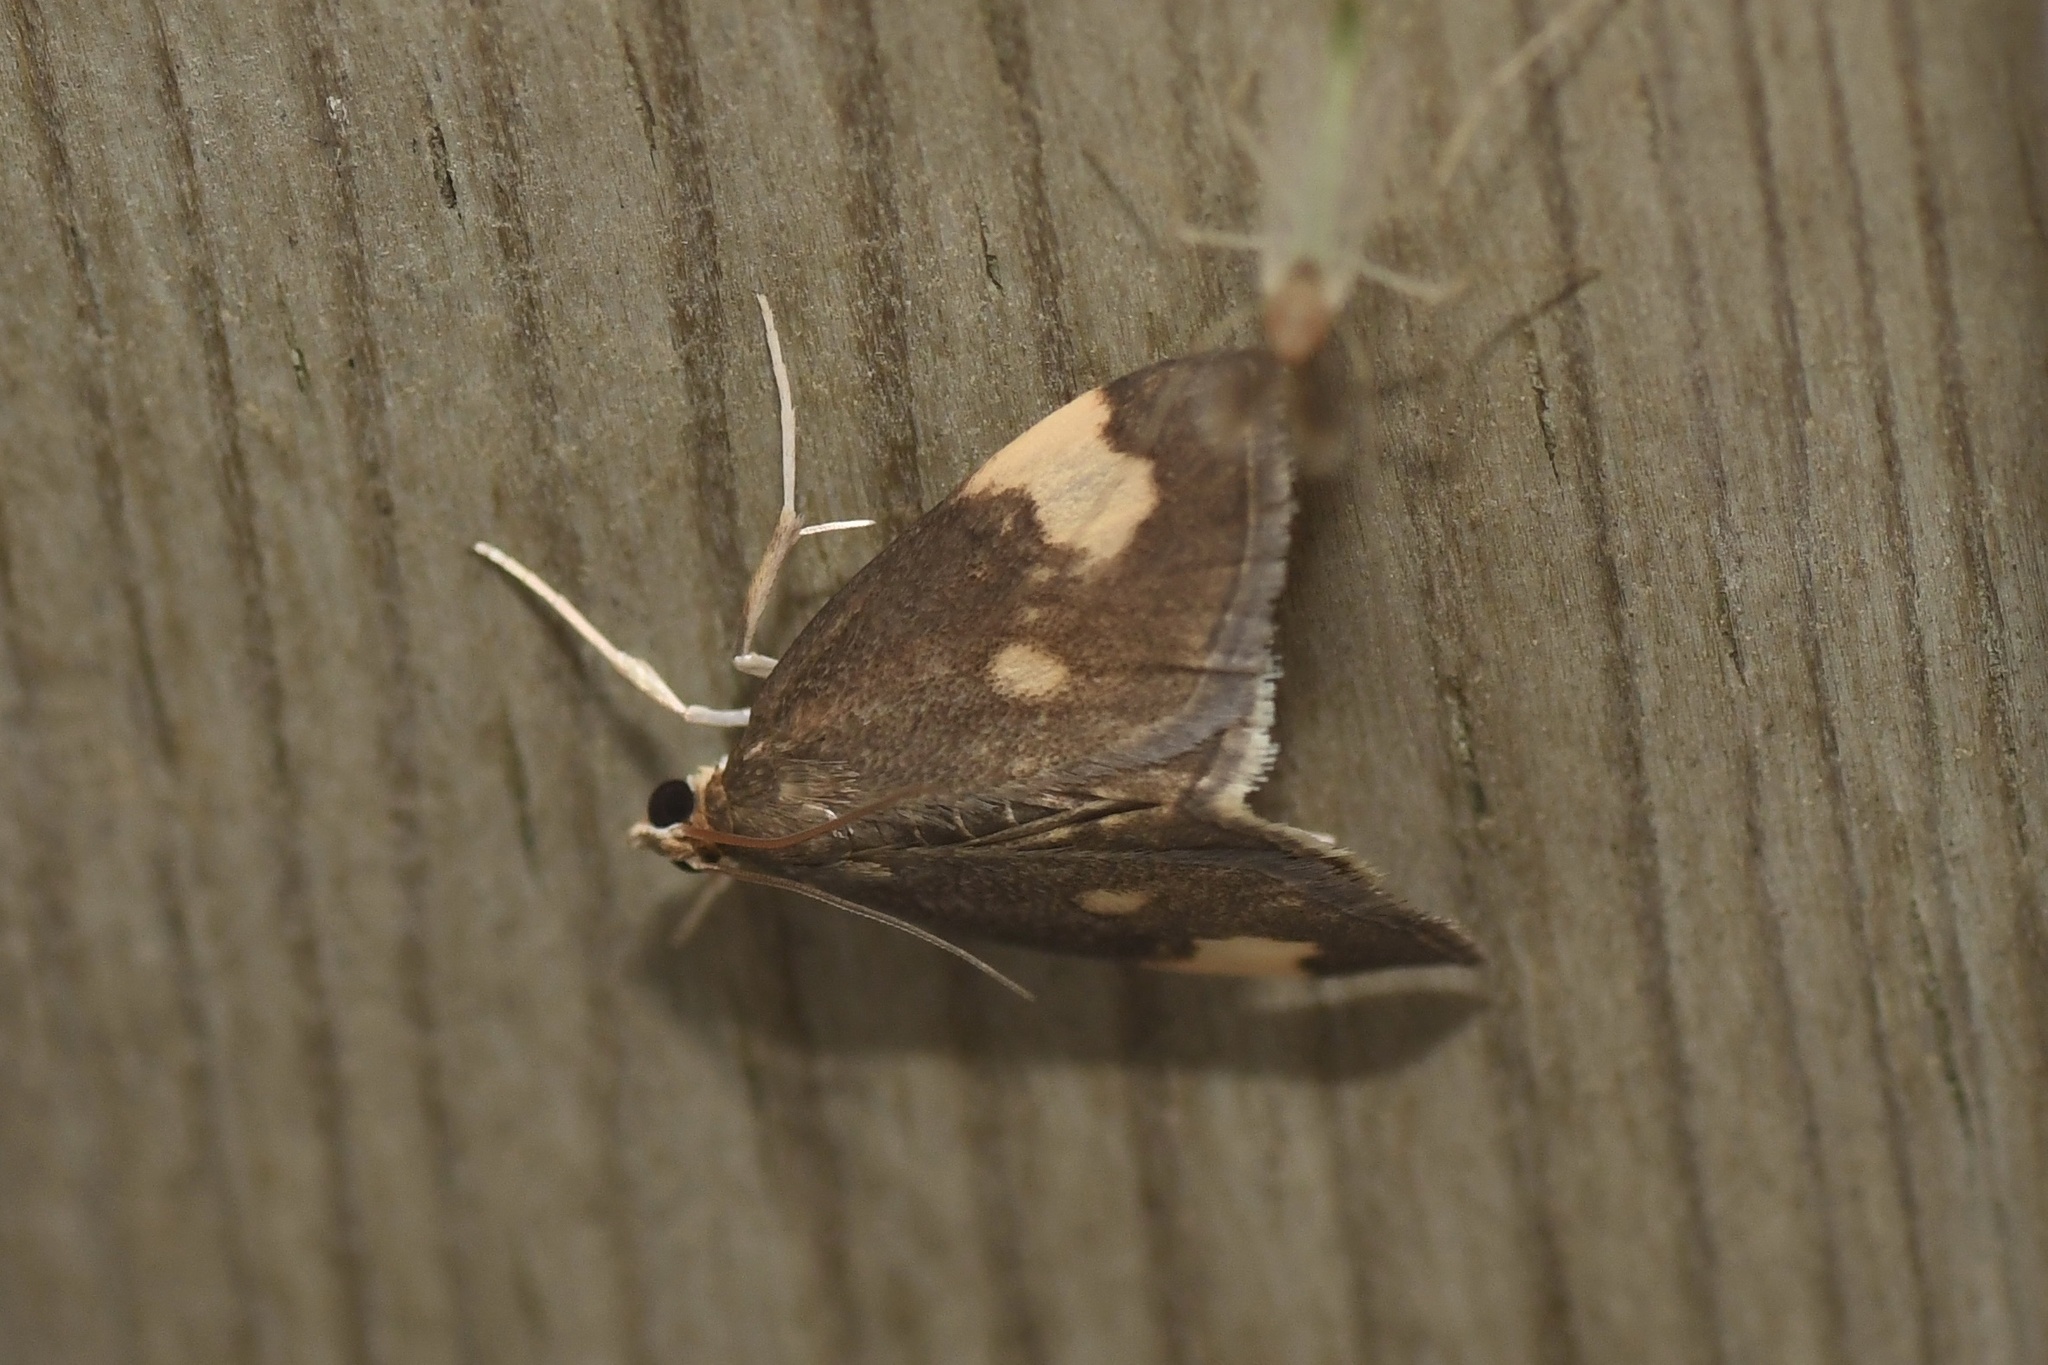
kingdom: Animalia
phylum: Arthropoda
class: Insecta
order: Lepidoptera
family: Crambidae
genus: Evergestis
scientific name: Evergestis unimacula
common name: Large-spotted evergestis moth
